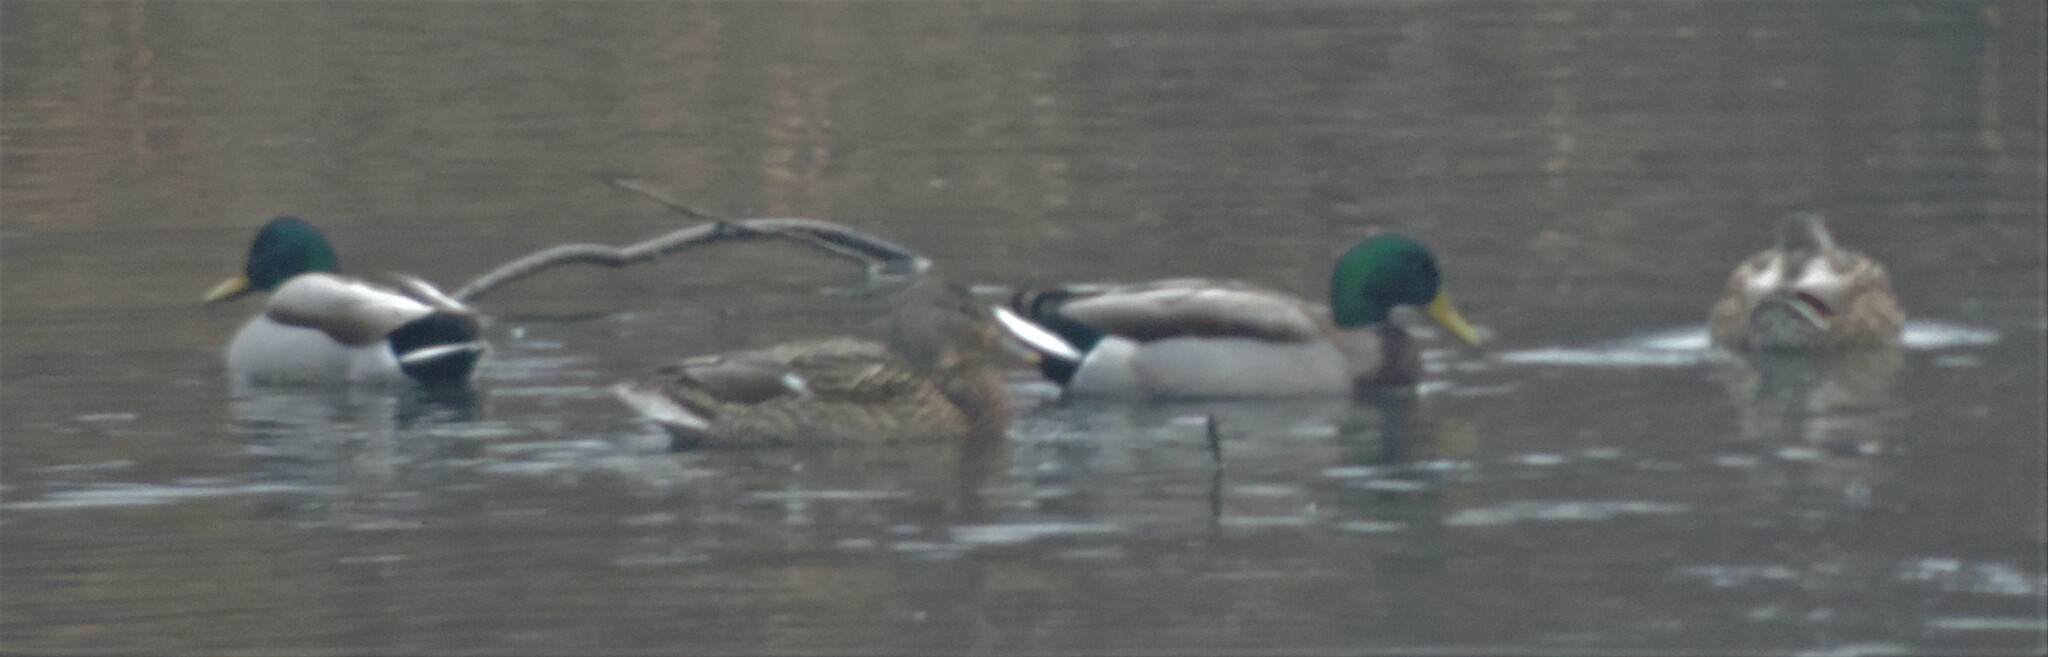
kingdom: Animalia
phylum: Chordata
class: Aves
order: Anseriformes
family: Anatidae
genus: Anas
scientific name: Anas platyrhynchos
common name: Mallard
